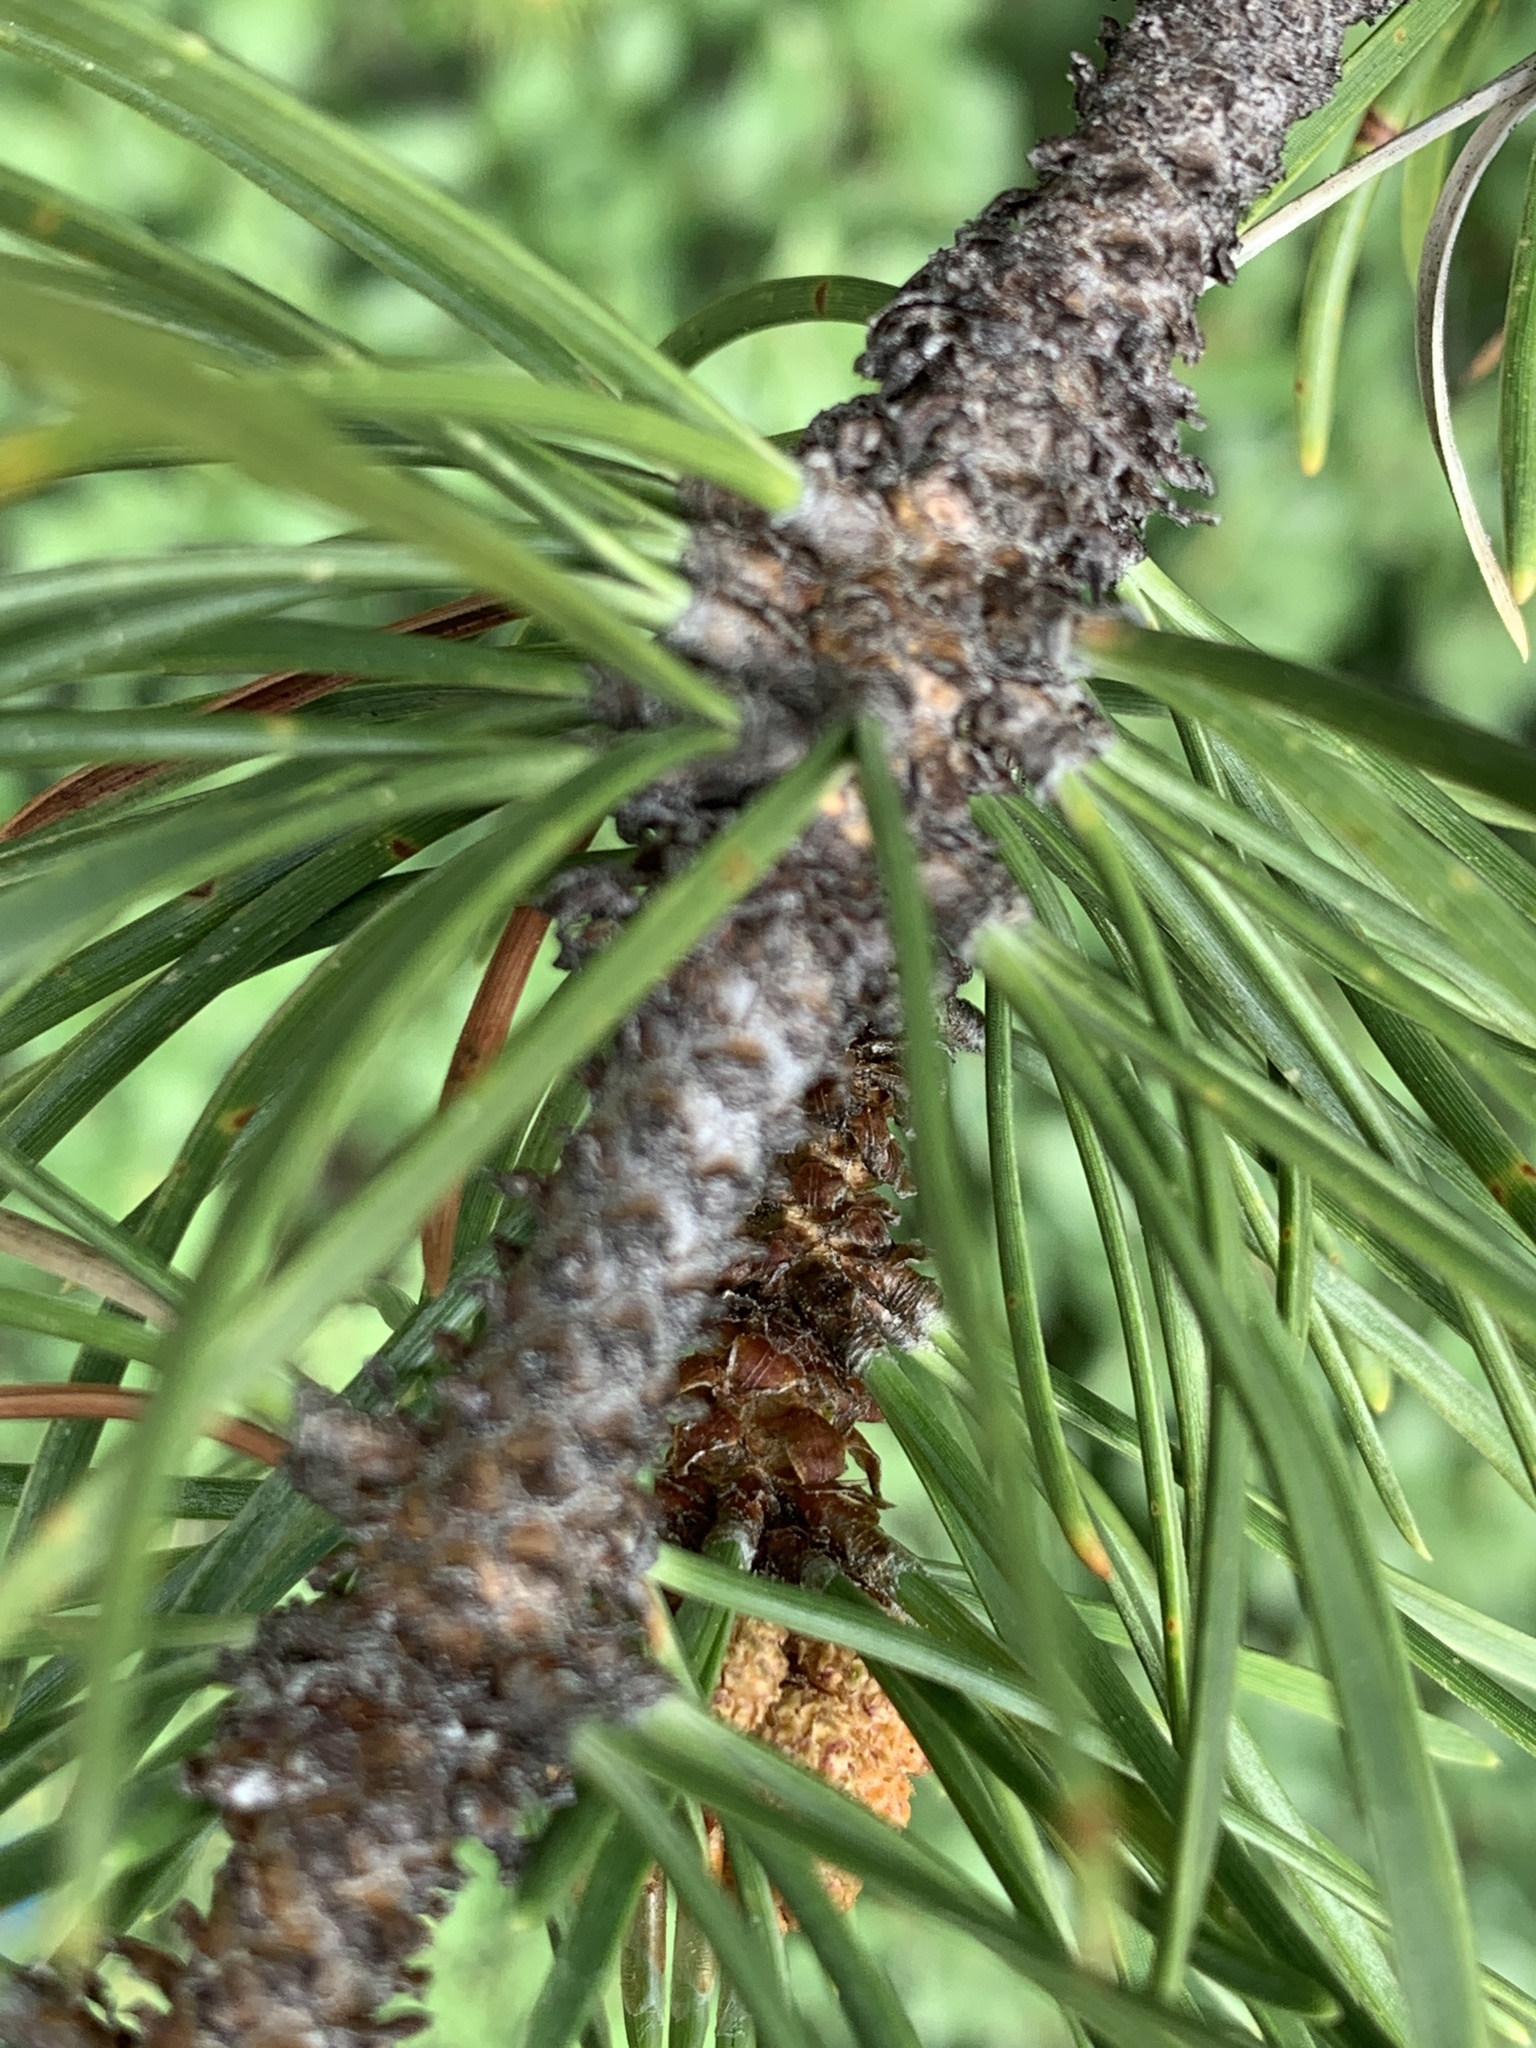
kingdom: Plantae
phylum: Tracheophyta
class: Pinopsida
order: Pinales
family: Pinaceae
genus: Pinus
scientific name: Pinus contorta
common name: Lodgepole pine
